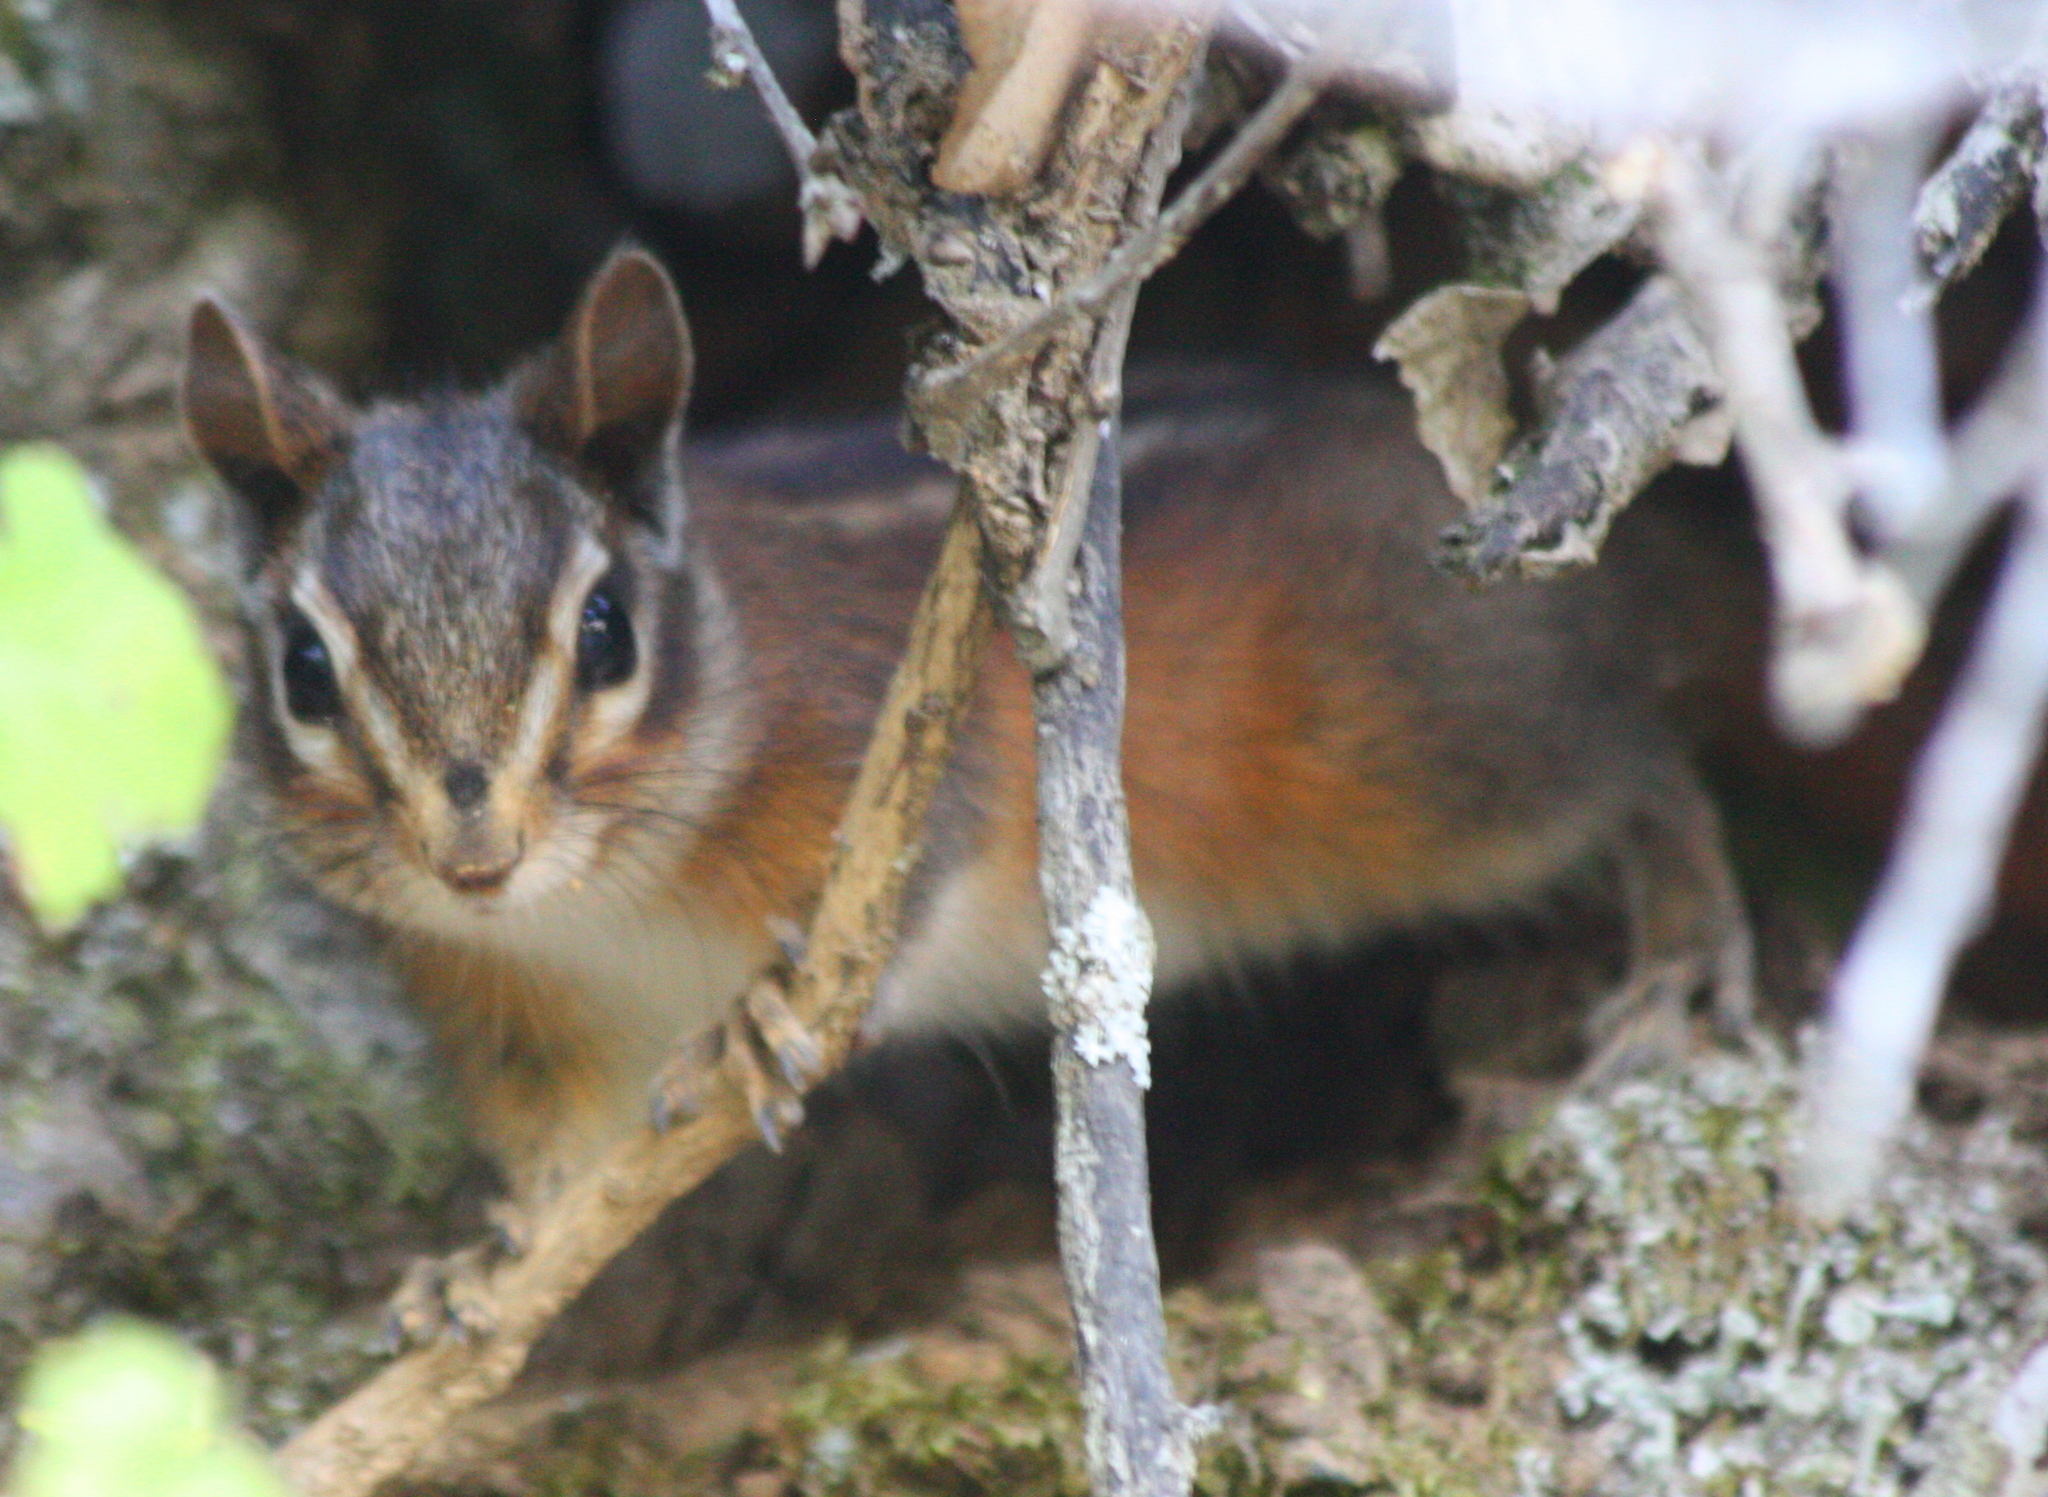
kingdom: Animalia
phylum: Chordata
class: Mammalia
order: Rodentia
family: Sciuridae
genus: Tamias
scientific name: Tamias sonomae
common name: Sonoma chipmunk
